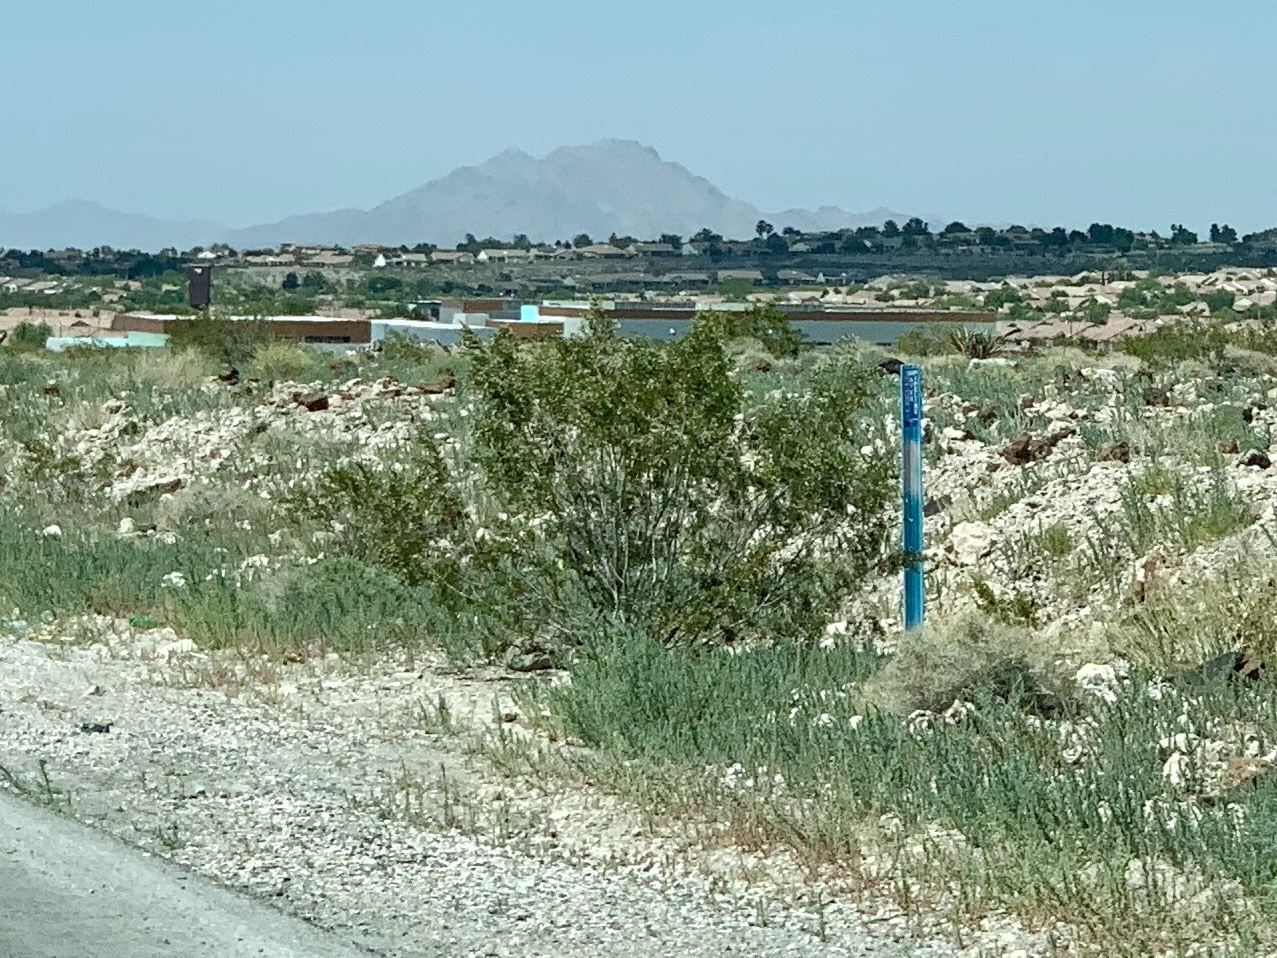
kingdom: Plantae
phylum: Tracheophyta
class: Magnoliopsida
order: Zygophyllales
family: Zygophyllaceae
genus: Larrea
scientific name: Larrea tridentata
